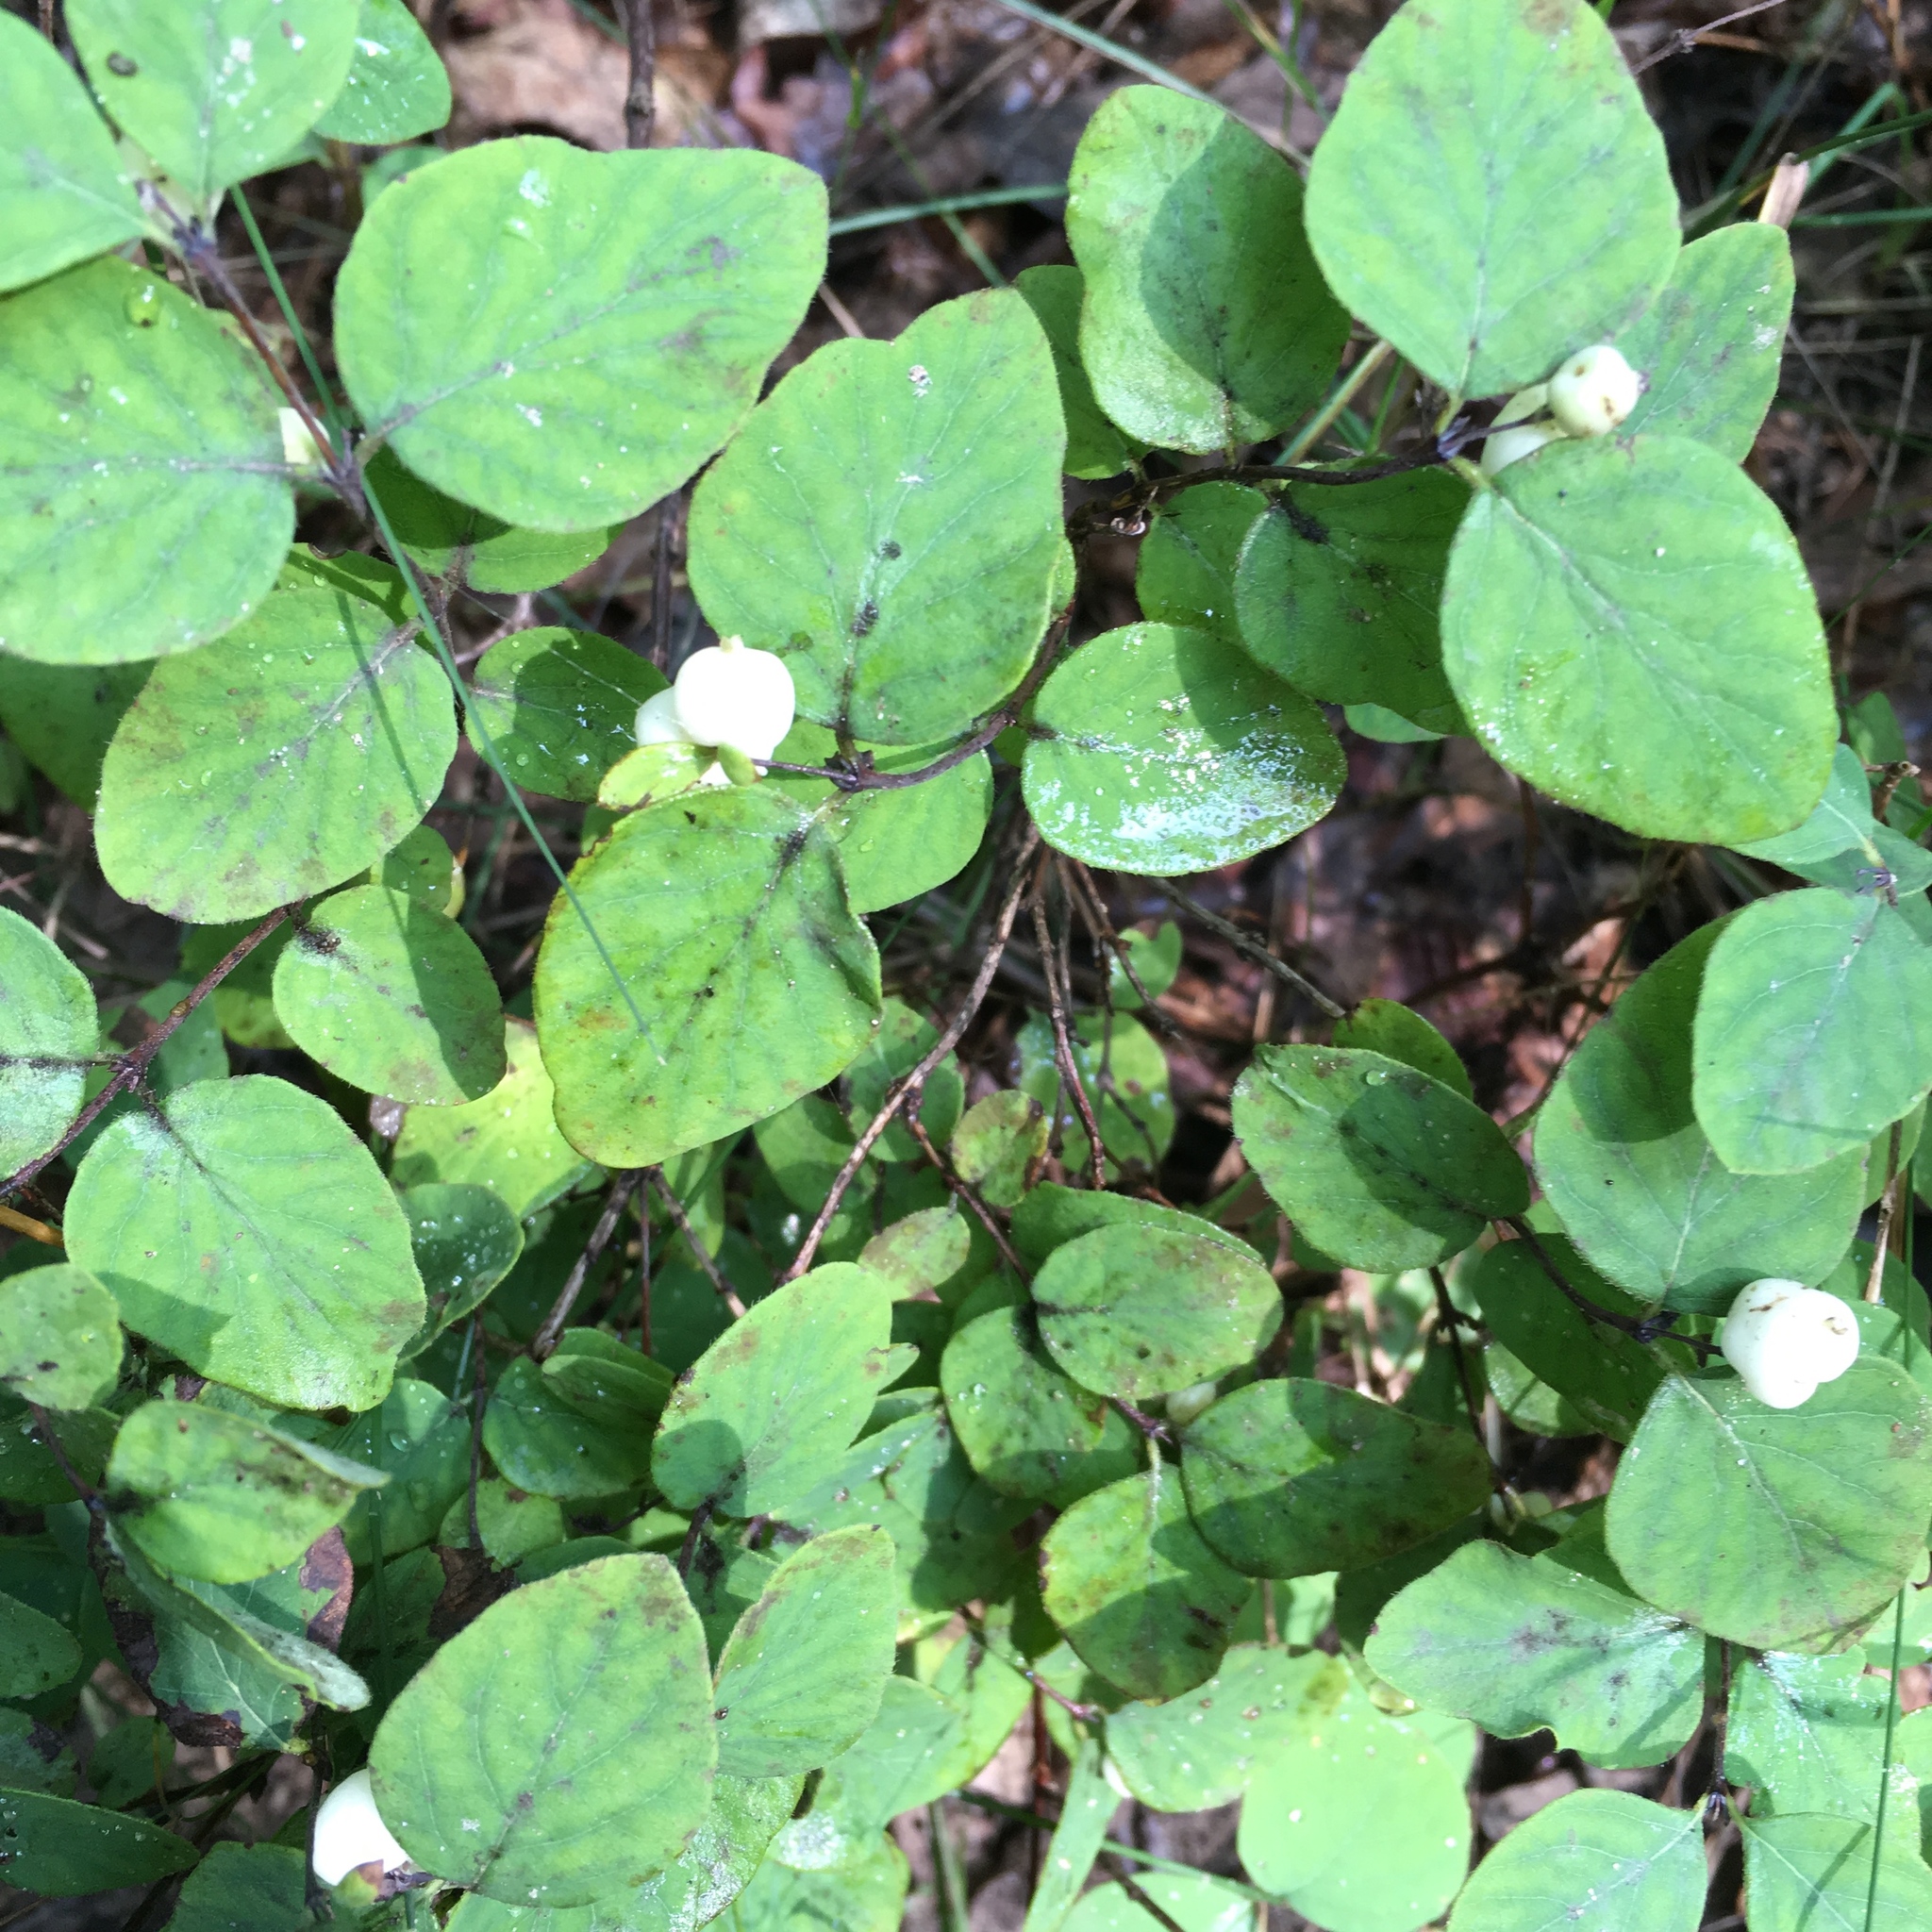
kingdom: Plantae
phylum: Tracheophyta
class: Magnoliopsida
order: Dipsacales
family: Caprifoliaceae
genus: Symphoricarpos
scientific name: Symphoricarpos albus
